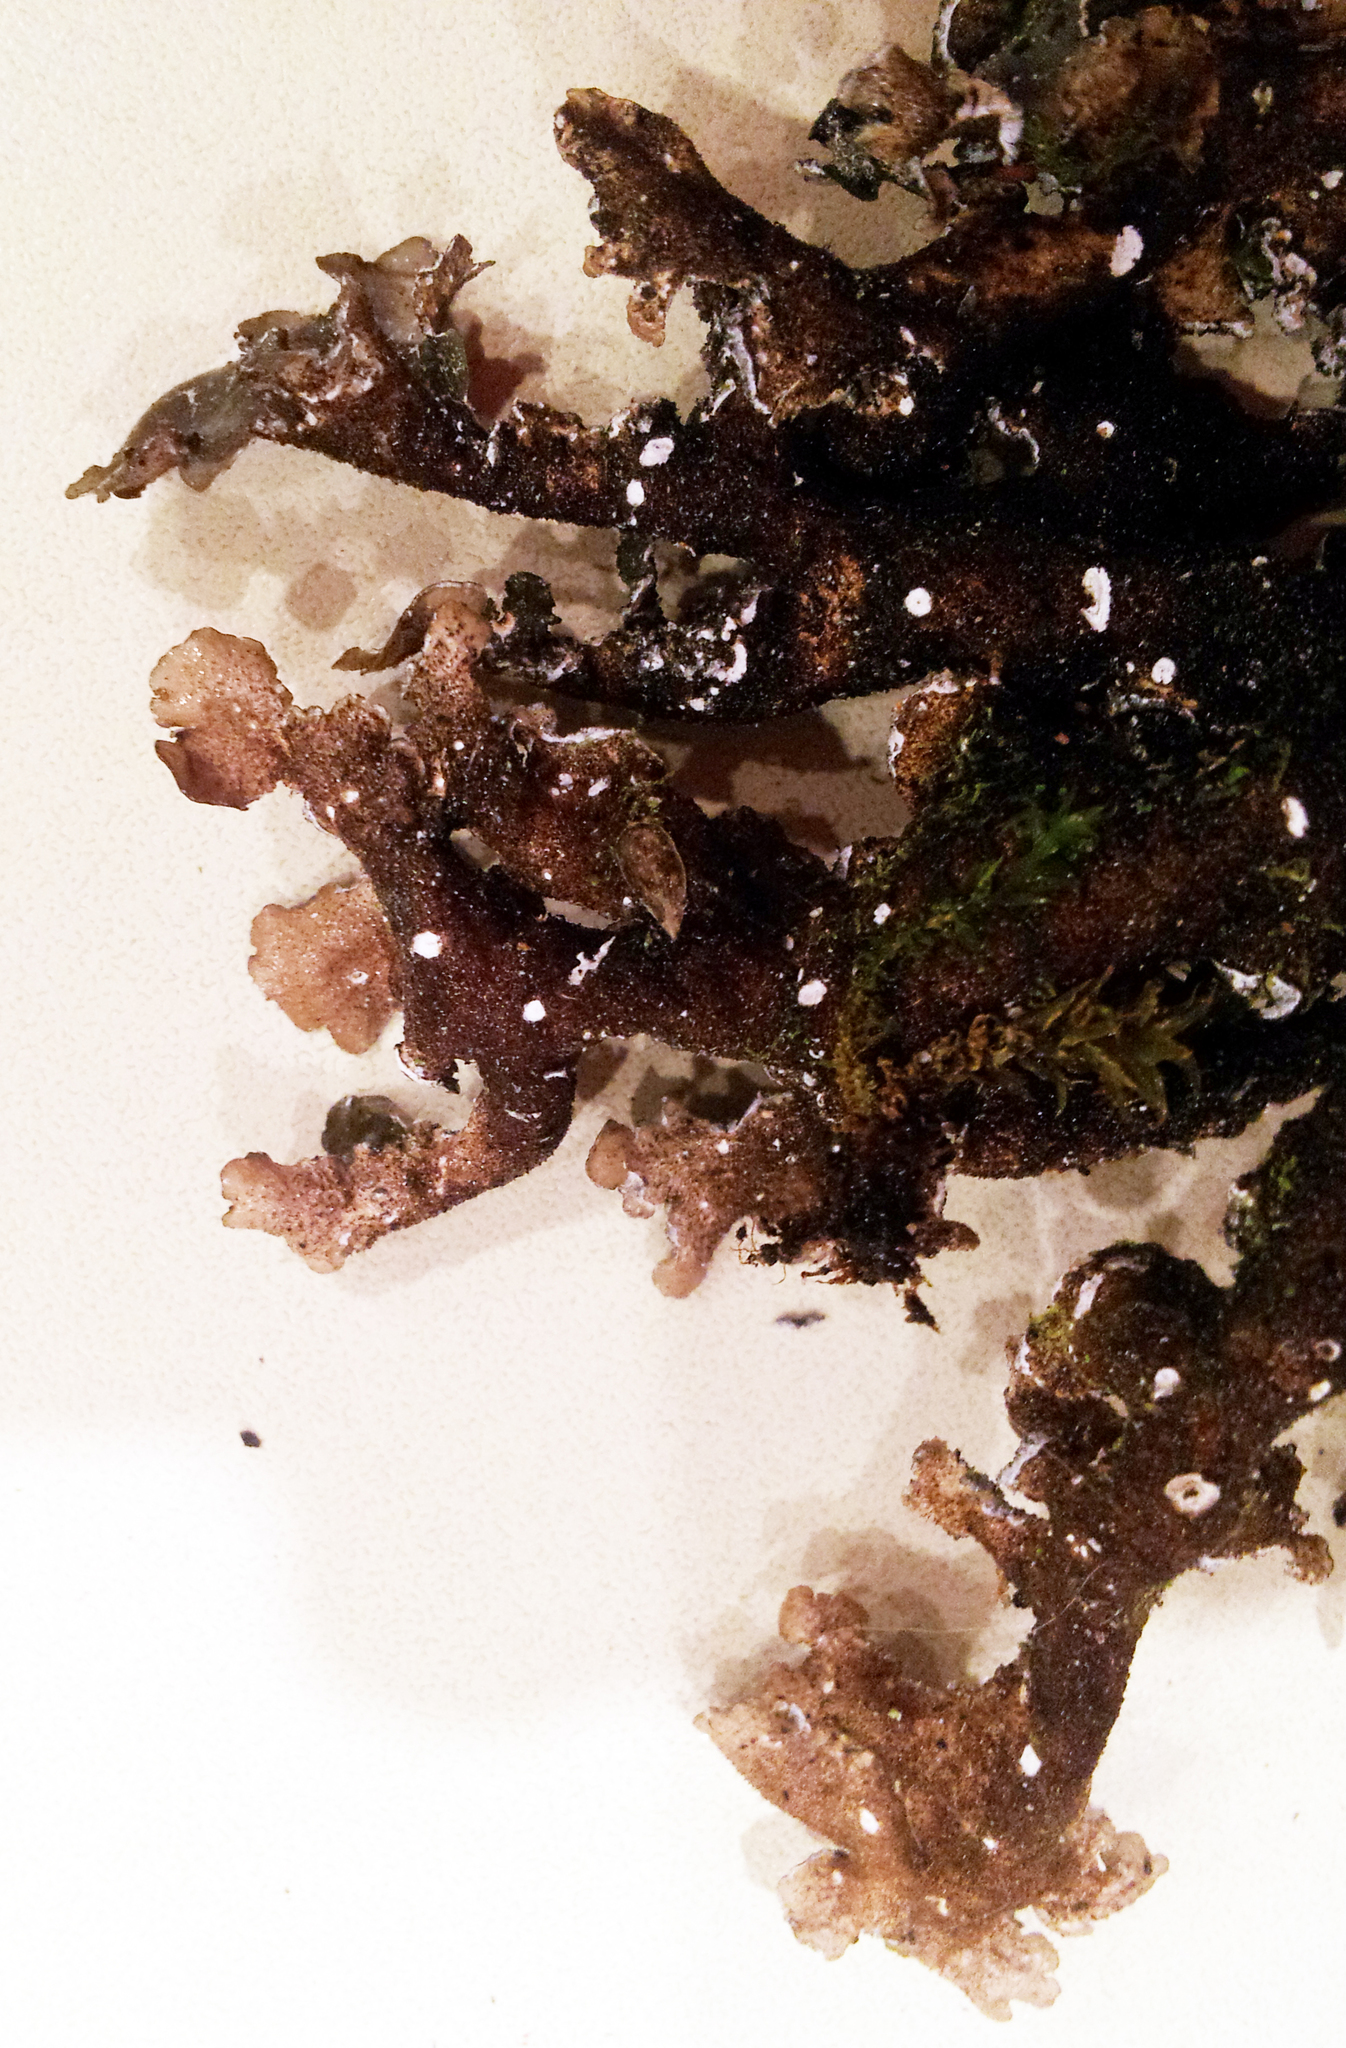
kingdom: Fungi
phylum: Ascomycota
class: Lecanoromycetes
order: Peltigerales
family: Lobariaceae
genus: Pseudocyphellaria
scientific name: Pseudocyphellaria haywardiorum
